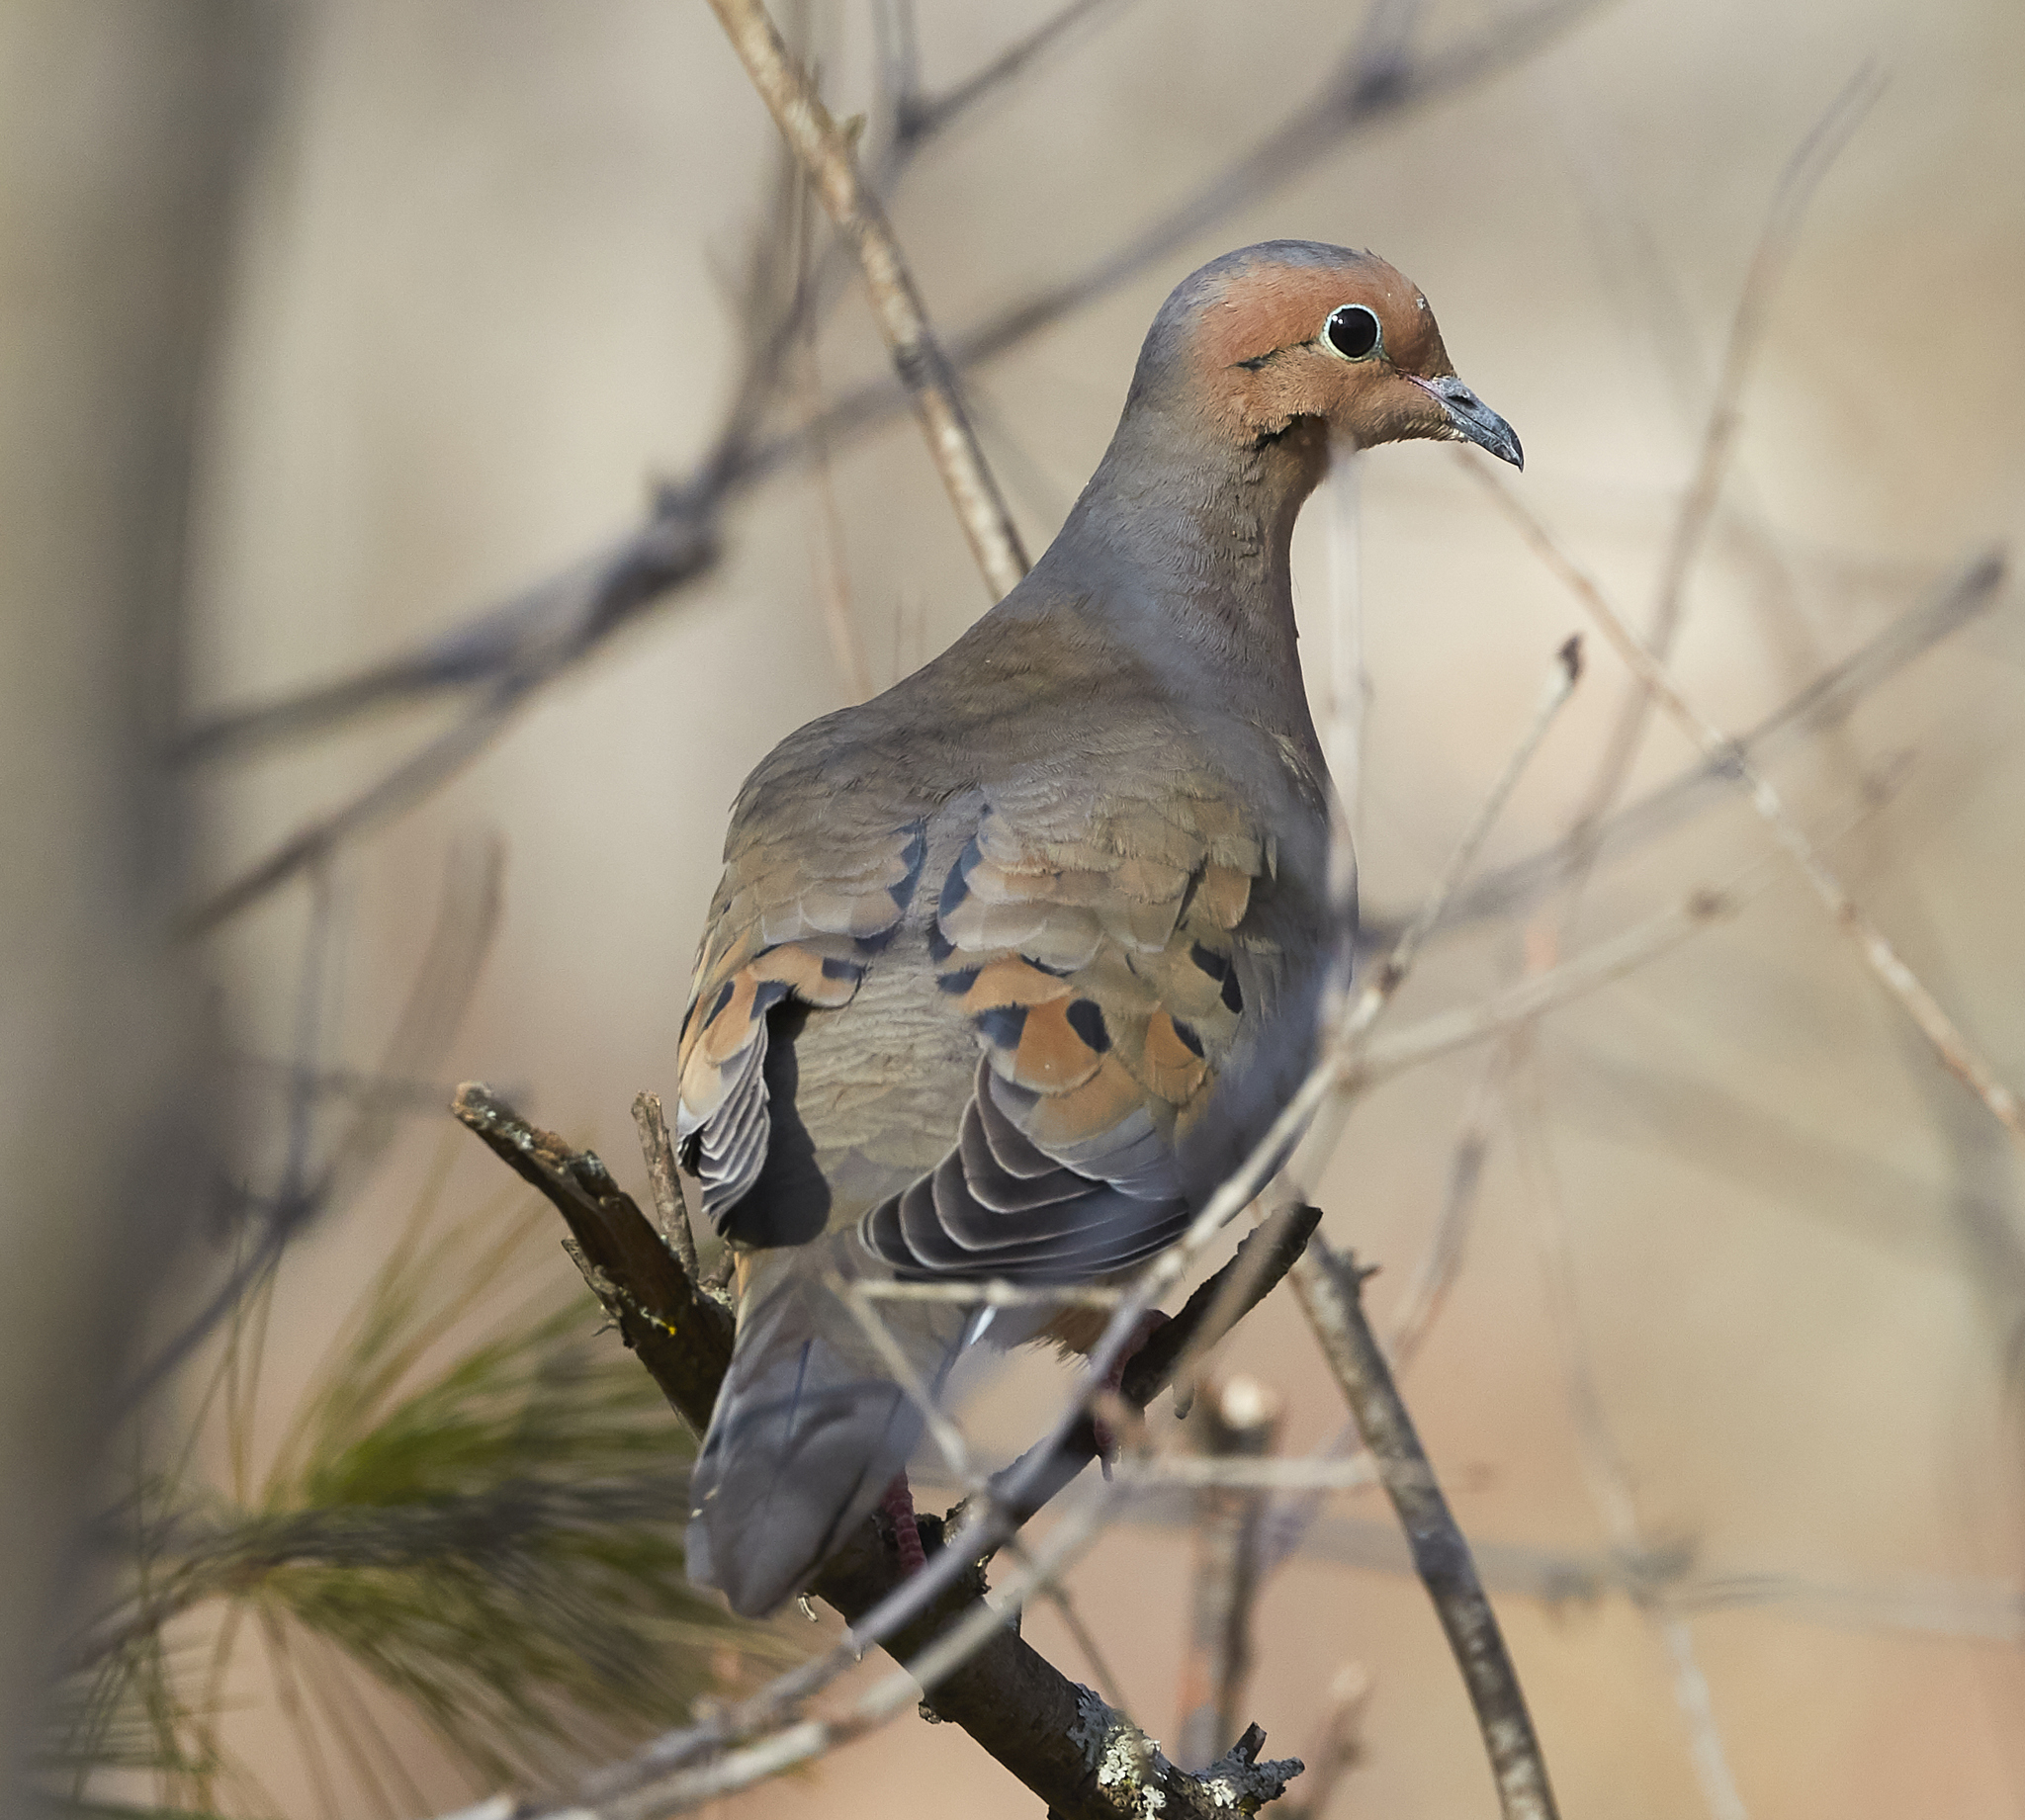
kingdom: Animalia
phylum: Chordata
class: Aves
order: Columbiformes
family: Columbidae
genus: Zenaida
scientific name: Zenaida macroura
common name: Mourning dove
